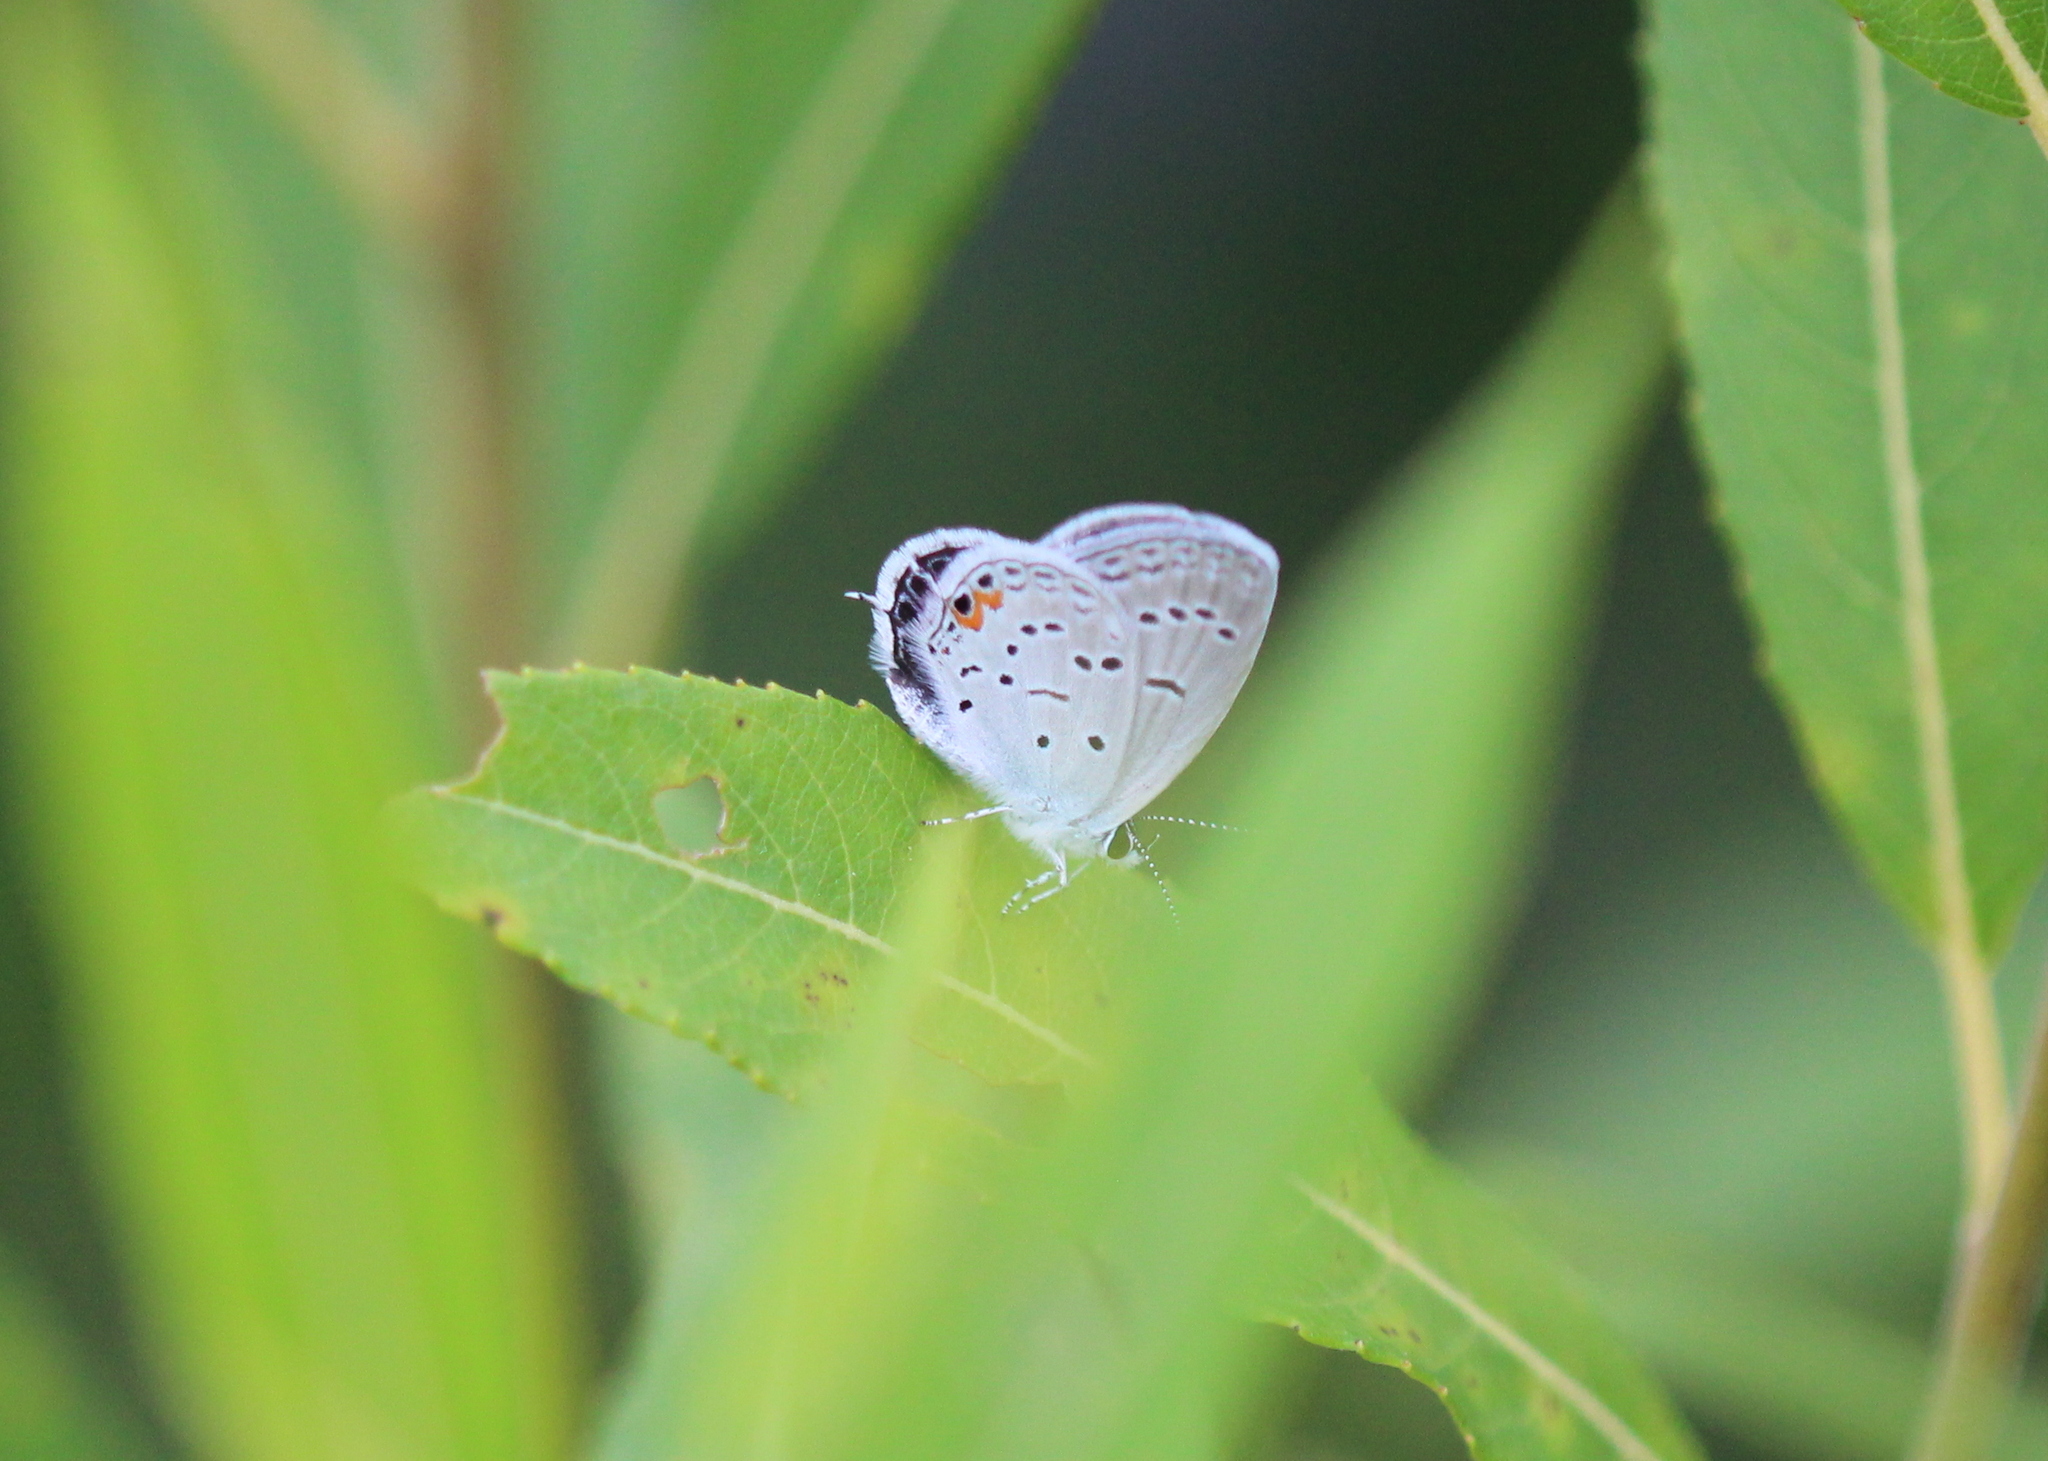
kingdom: Animalia
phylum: Arthropoda
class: Insecta
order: Lepidoptera
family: Lycaenidae
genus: Elkalyce
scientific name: Elkalyce comyntas
